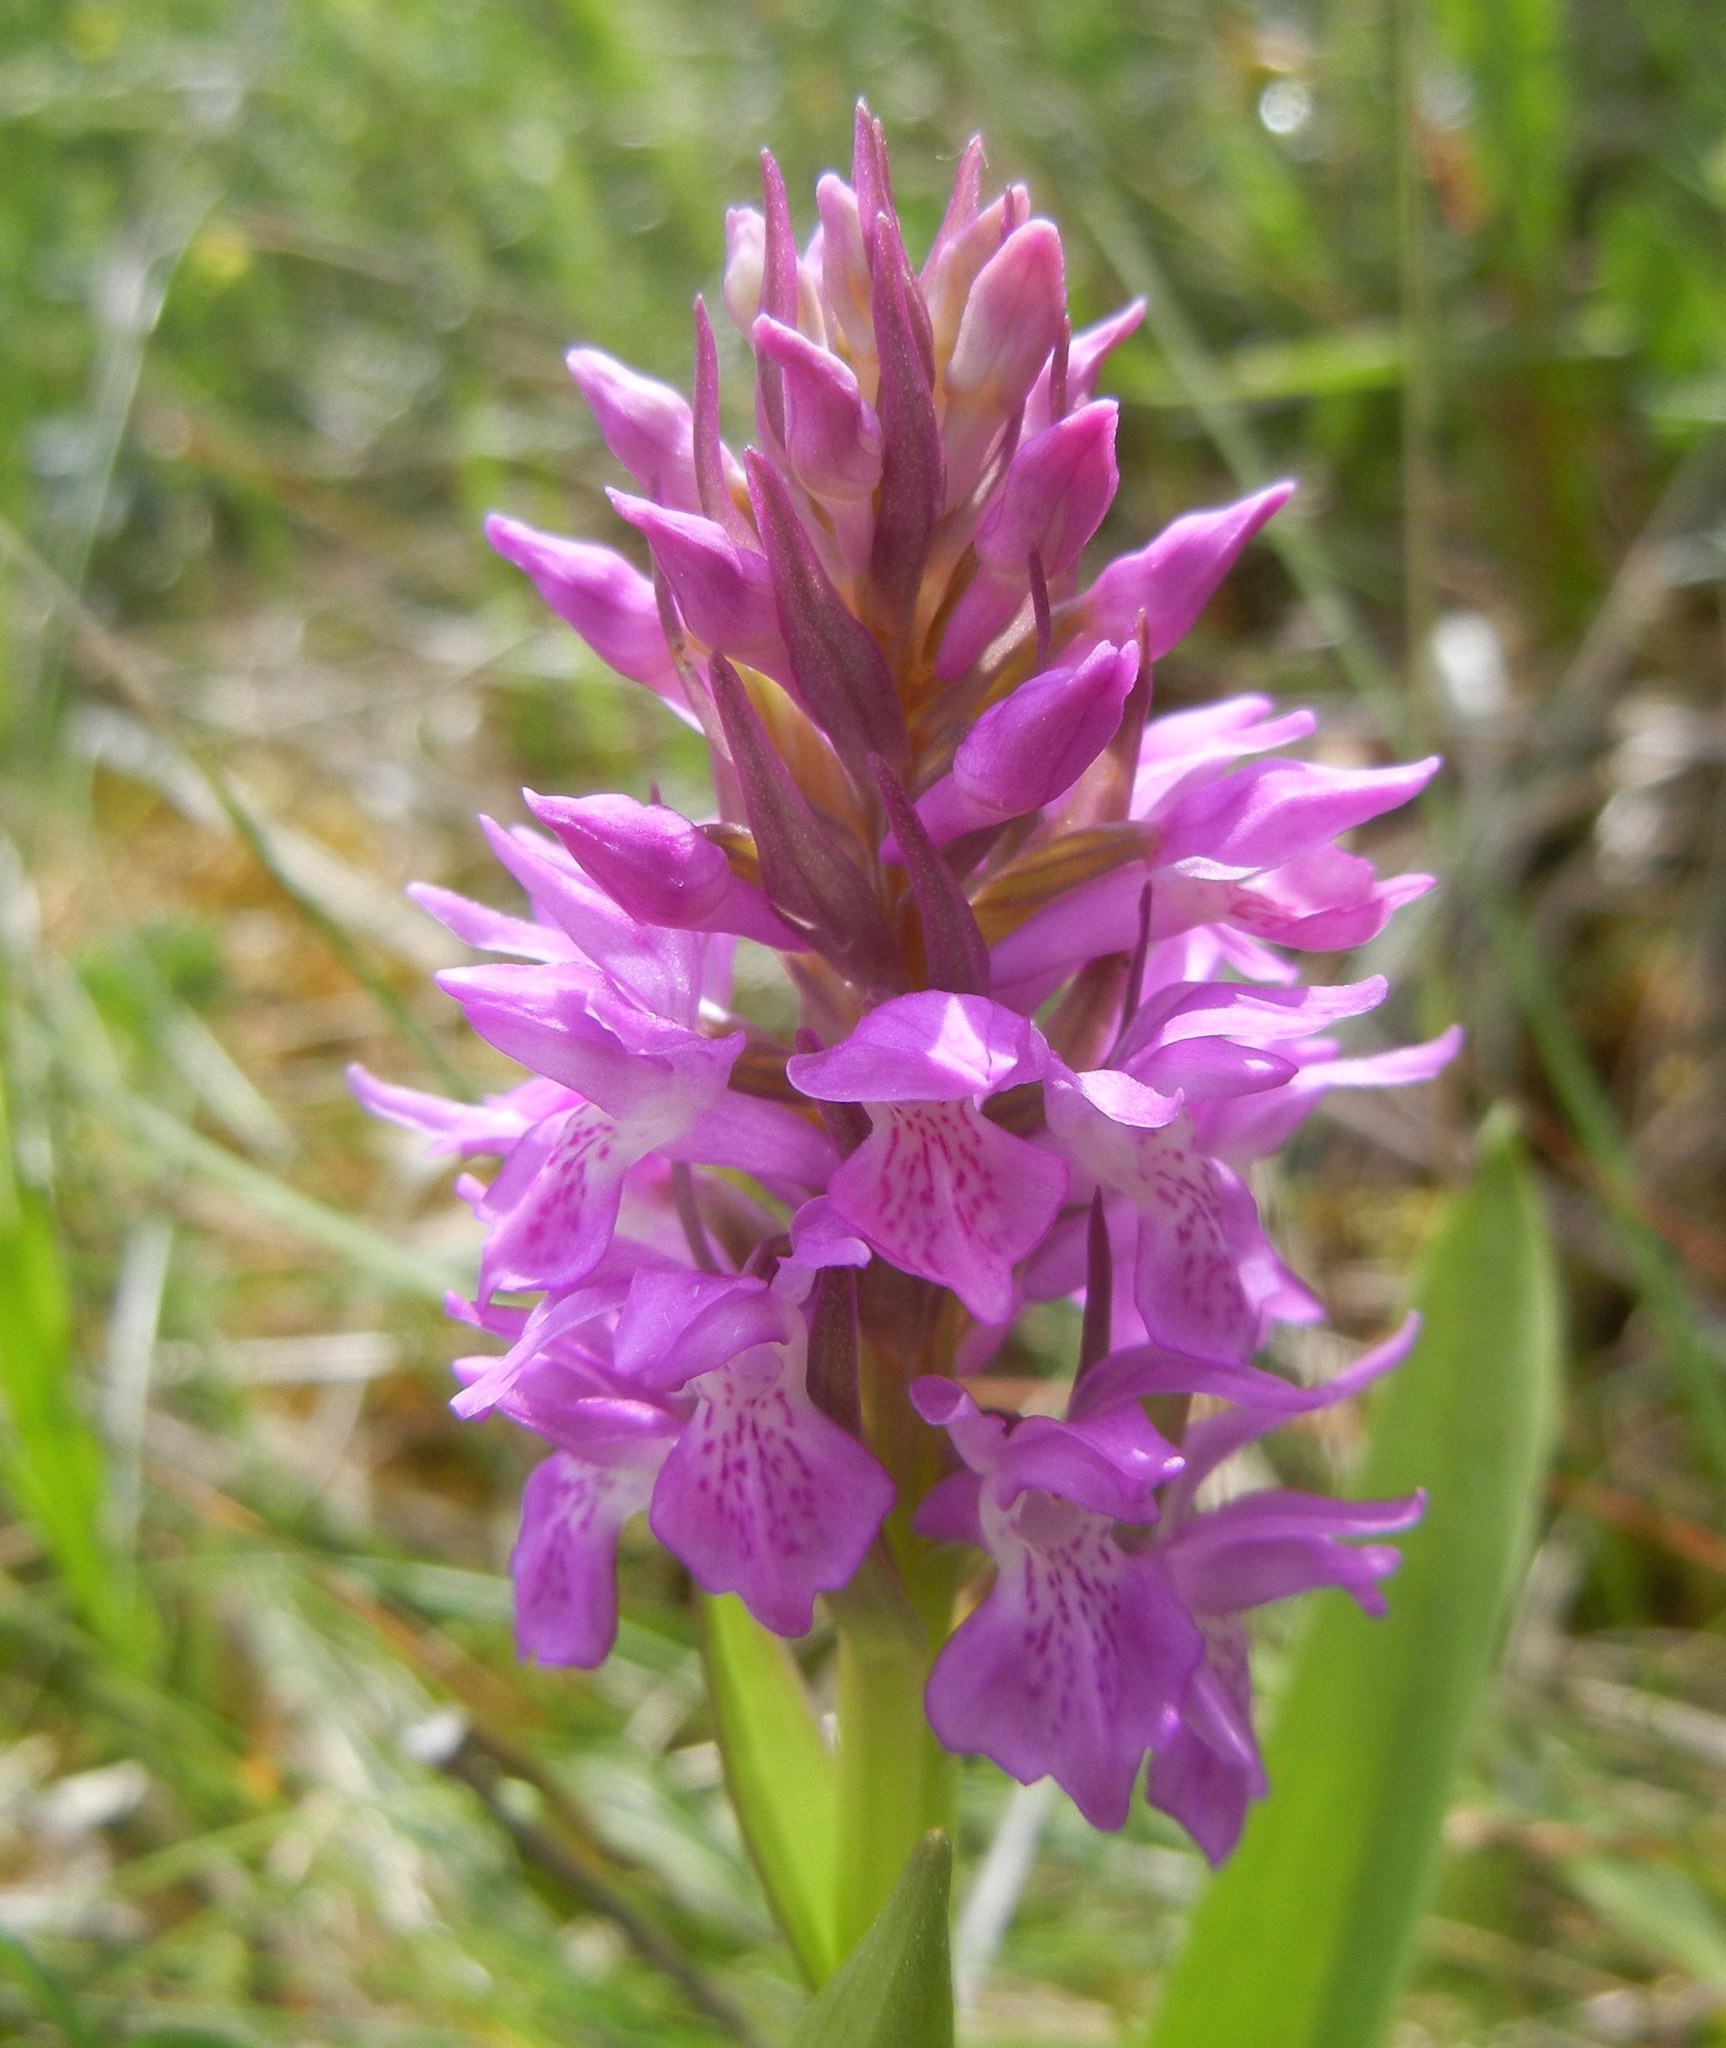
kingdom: Plantae
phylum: Tracheophyta
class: Liliopsida
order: Asparagales
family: Orchidaceae
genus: Dactylorhiza
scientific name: Dactylorhiza majalis
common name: Marsh orchid
